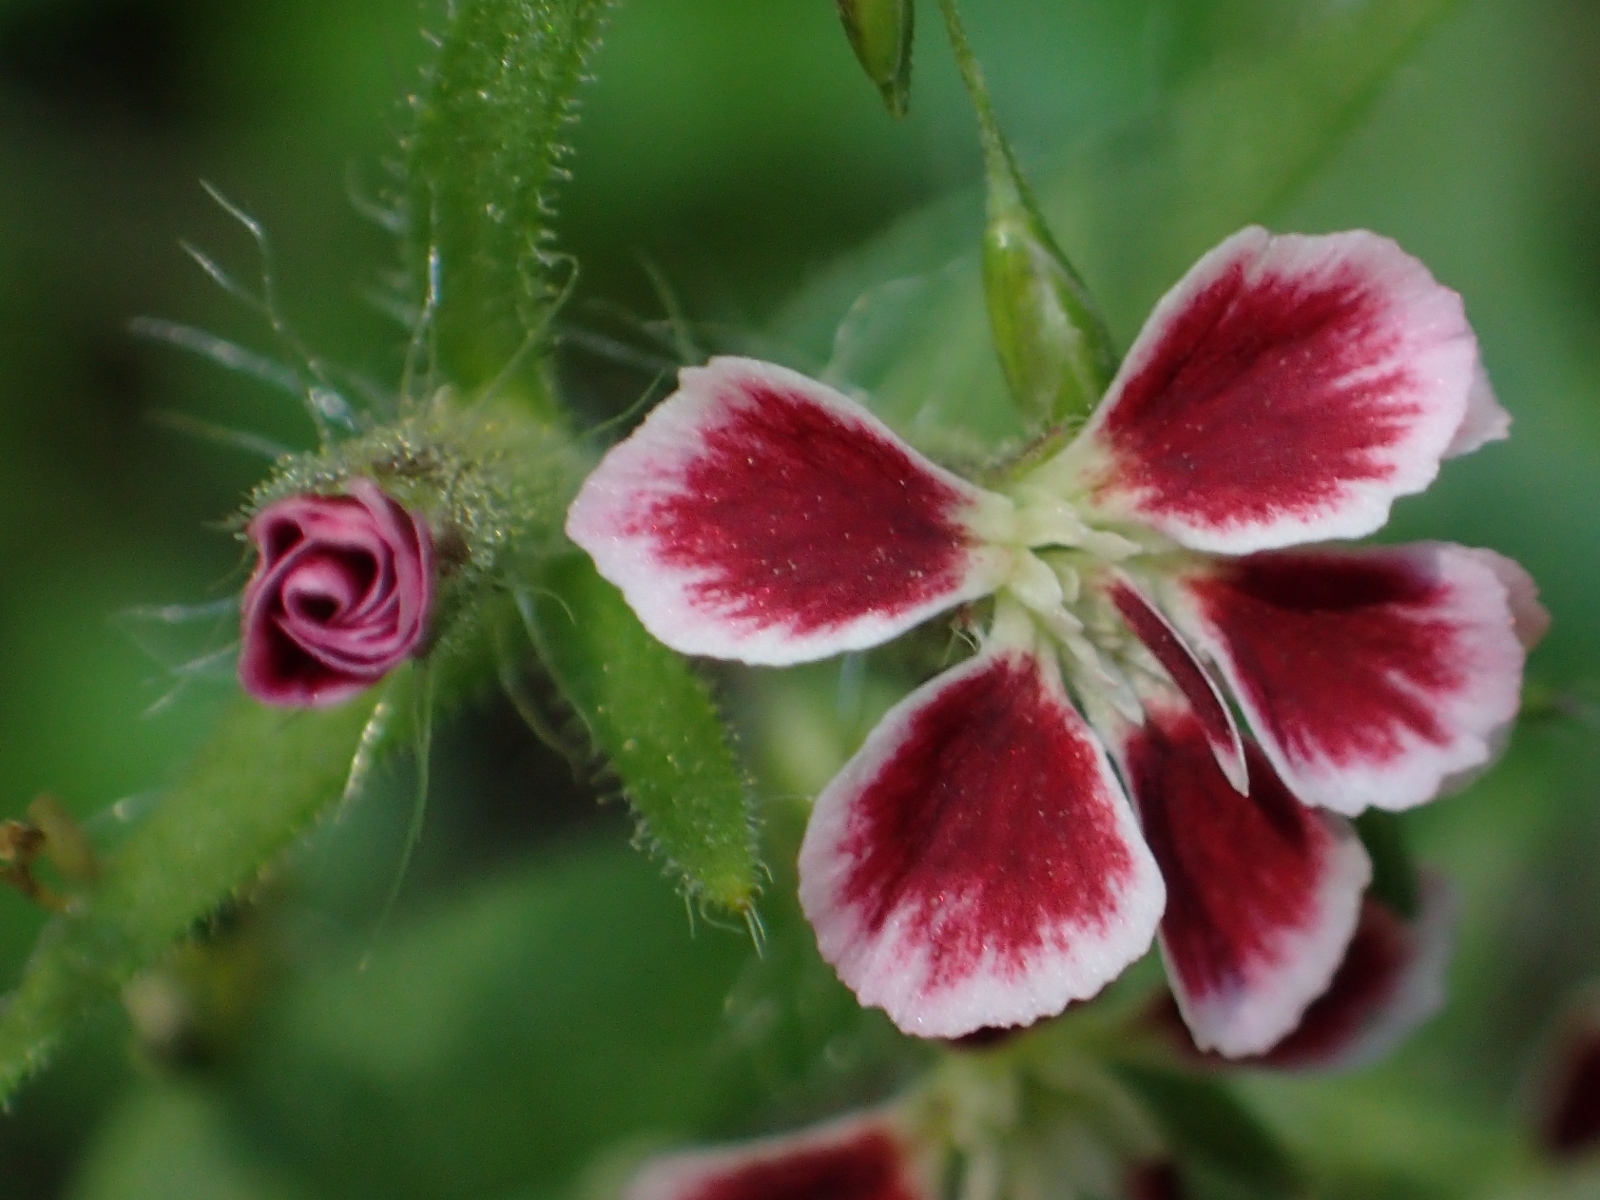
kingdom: Plantae
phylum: Tracheophyta
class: Magnoliopsida
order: Caryophyllales
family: Caryophyllaceae
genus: Silene
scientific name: Silene gallica
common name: Small-flowered catchfly
